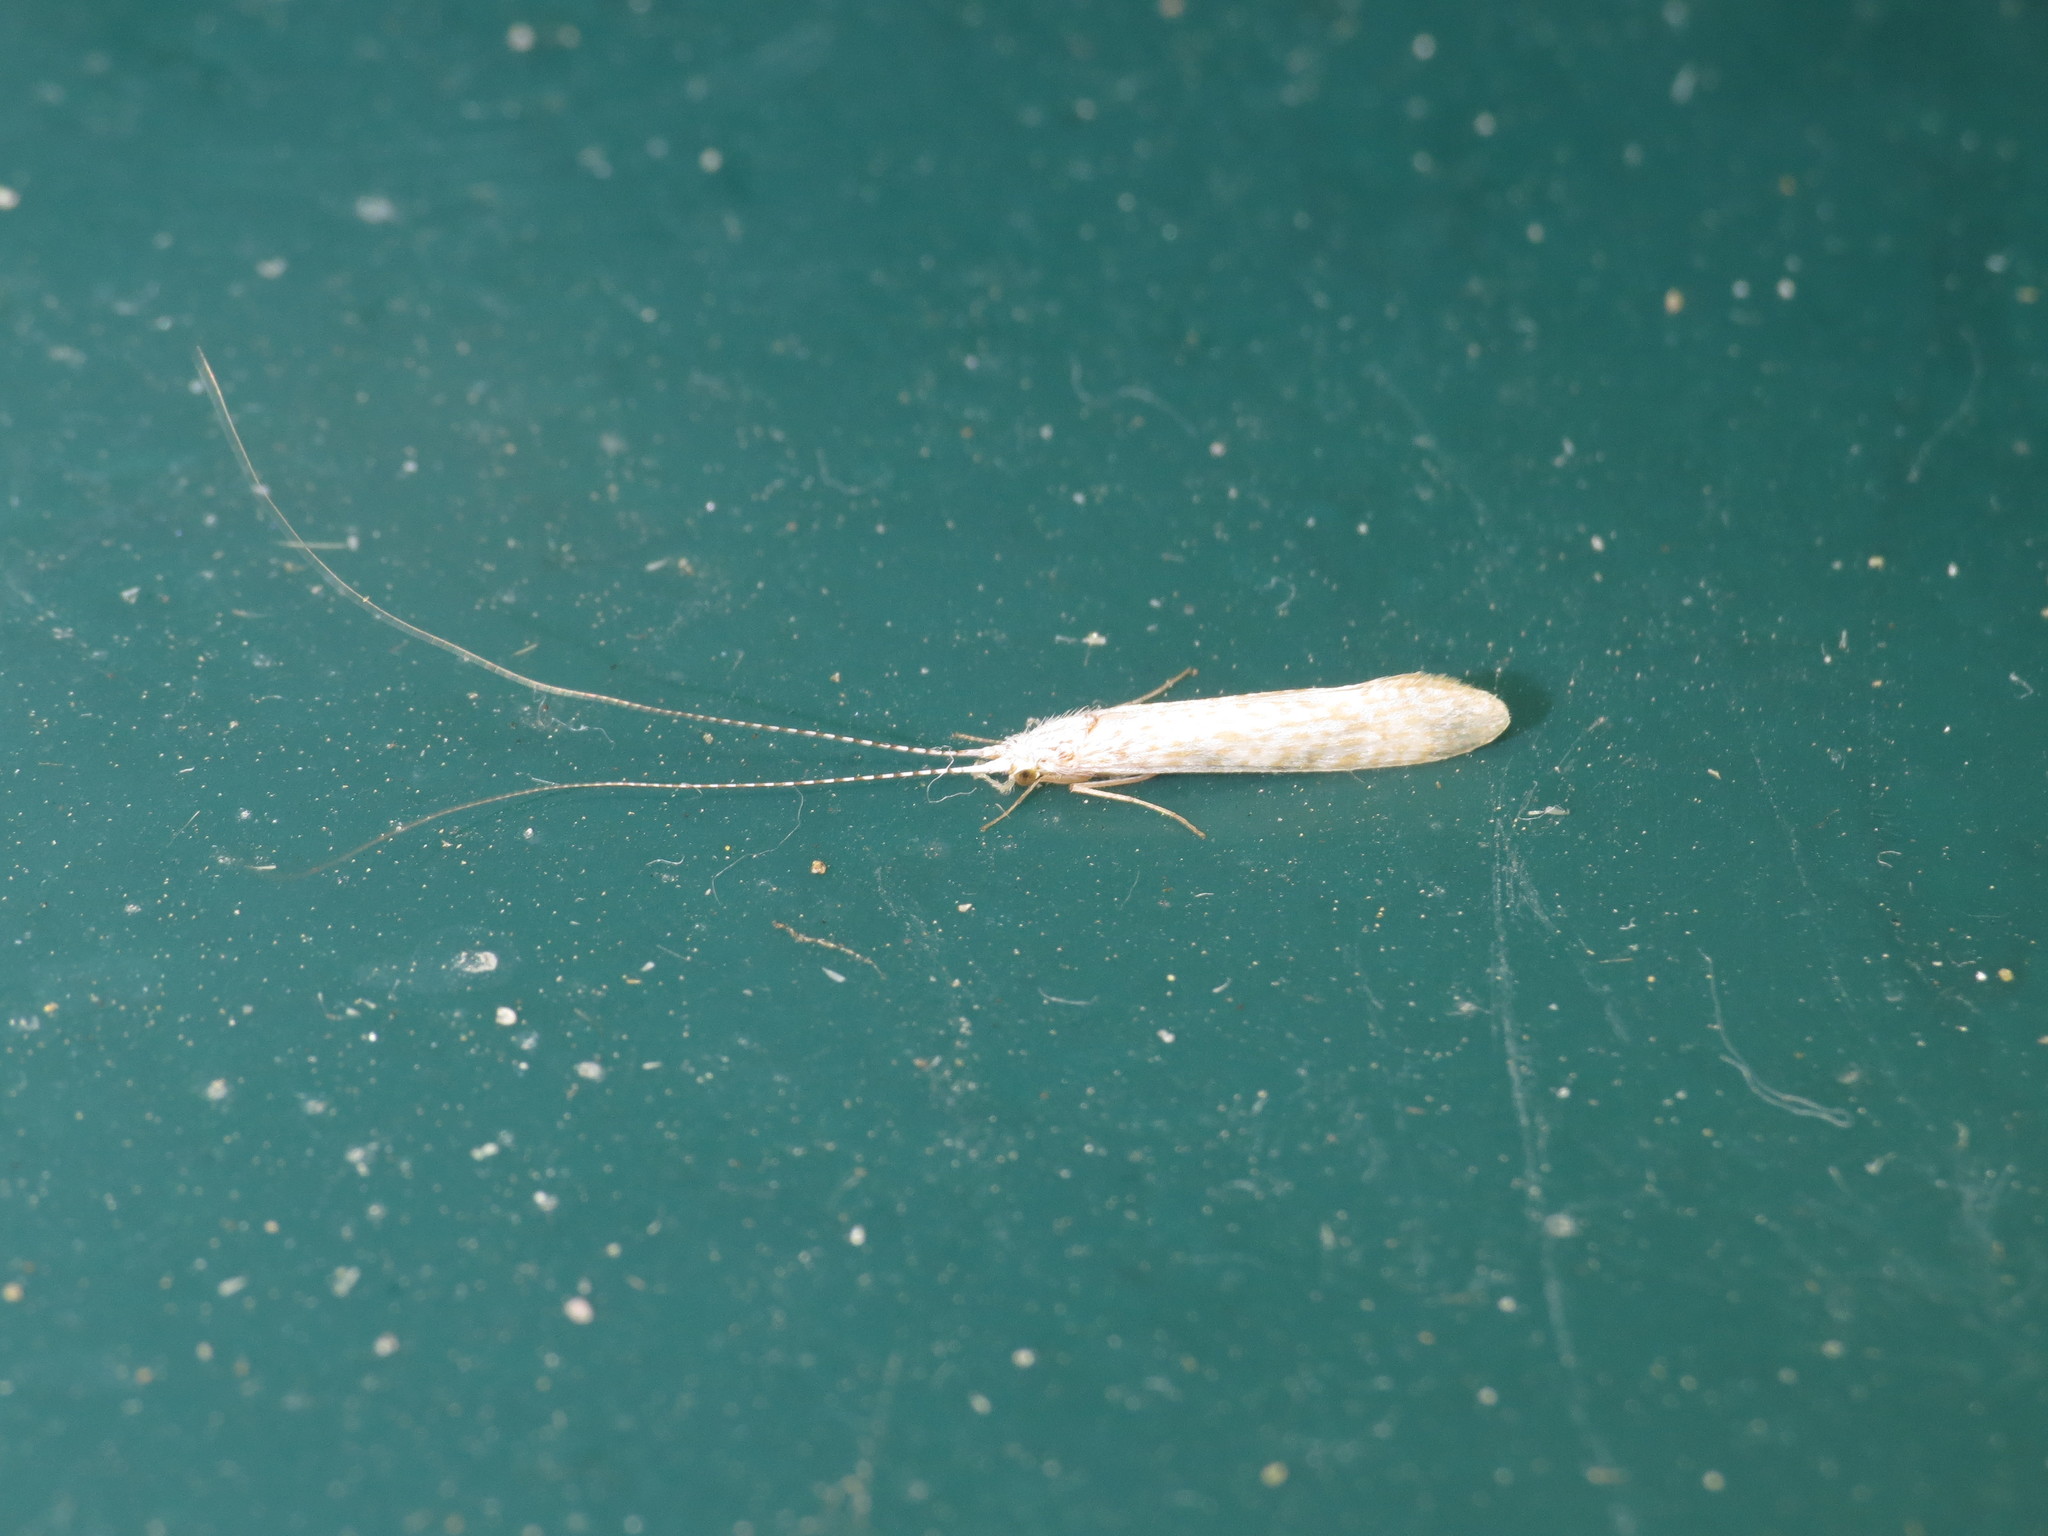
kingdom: Animalia
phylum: Arthropoda
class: Insecta
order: Trichoptera
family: Leptoceridae
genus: Nectopsyche
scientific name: Nectopsyche albida
